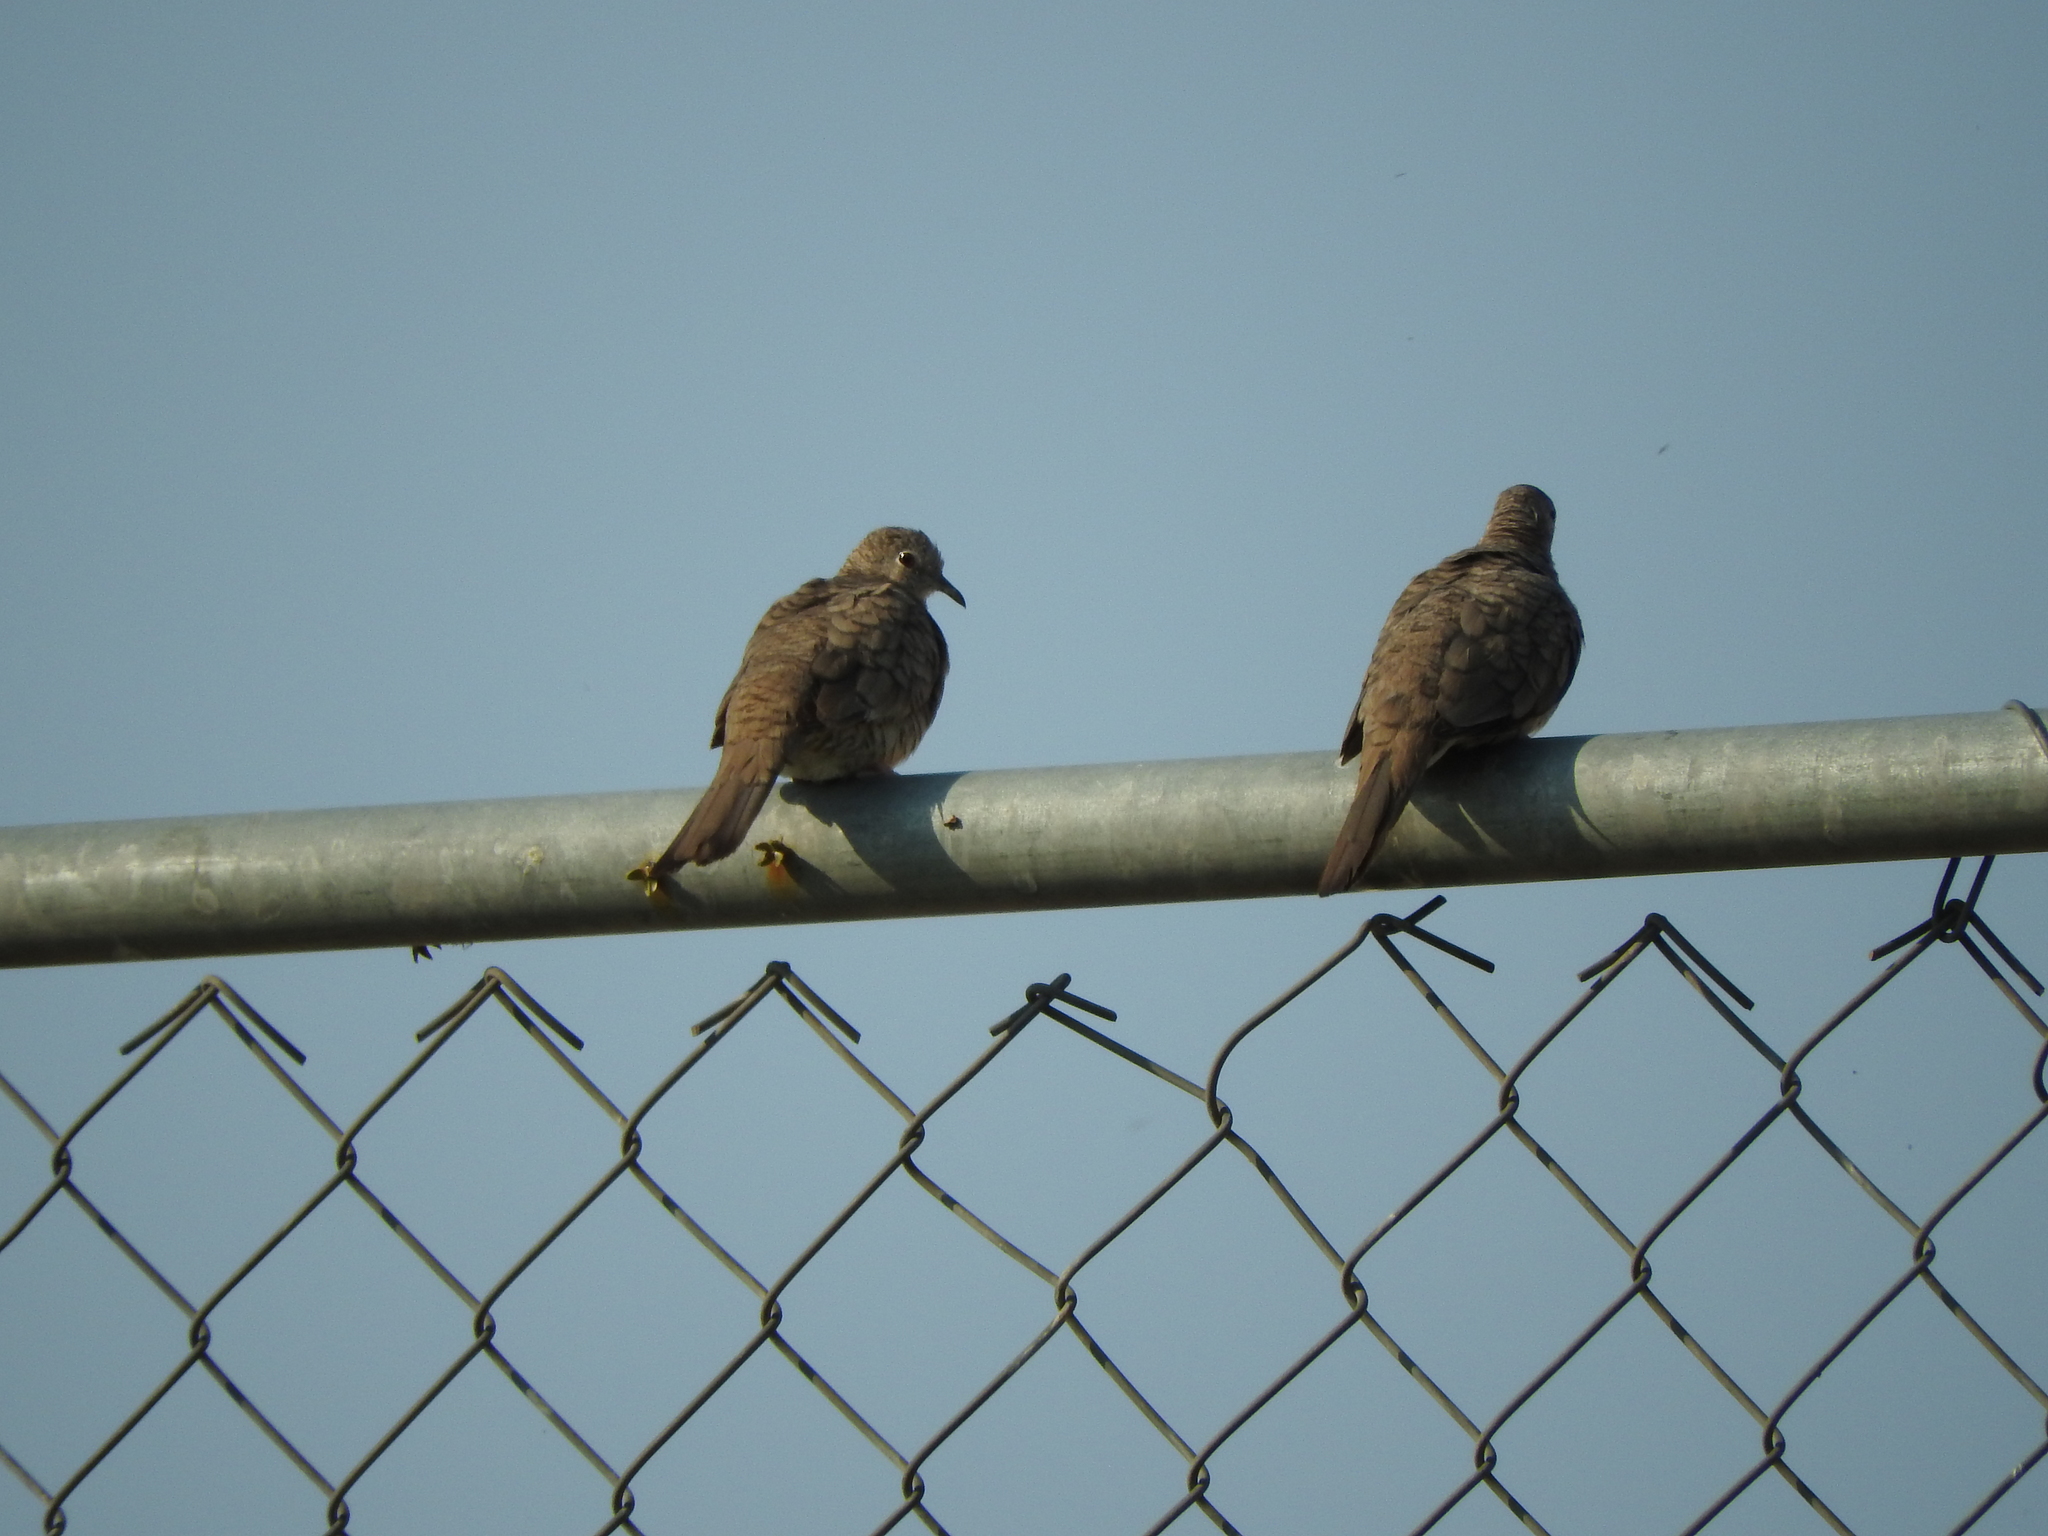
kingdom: Animalia
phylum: Chordata
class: Aves
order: Columbiformes
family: Columbidae
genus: Columbina
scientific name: Columbina inca
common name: Inca dove
